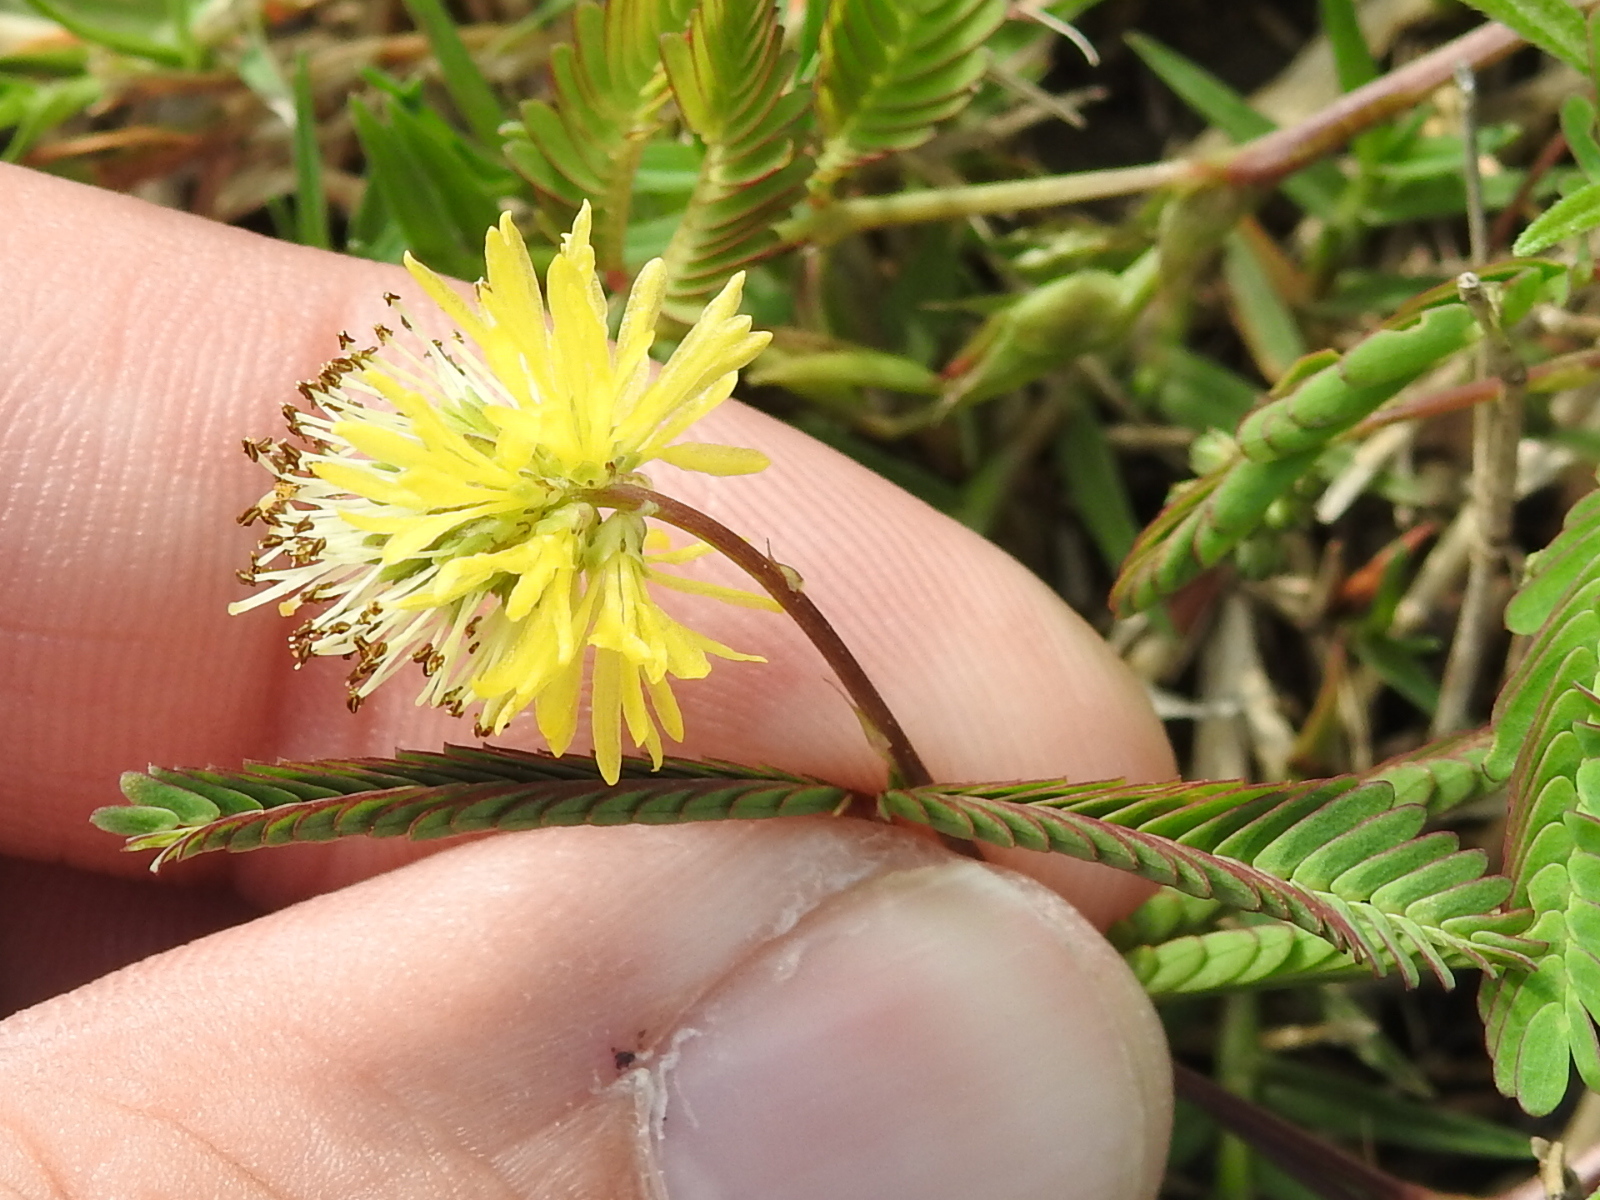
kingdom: Plantae
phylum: Tracheophyta
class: Magnoliopsida
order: Fabales
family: Fabaceae
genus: Neptunia
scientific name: Neptunia pubescens
